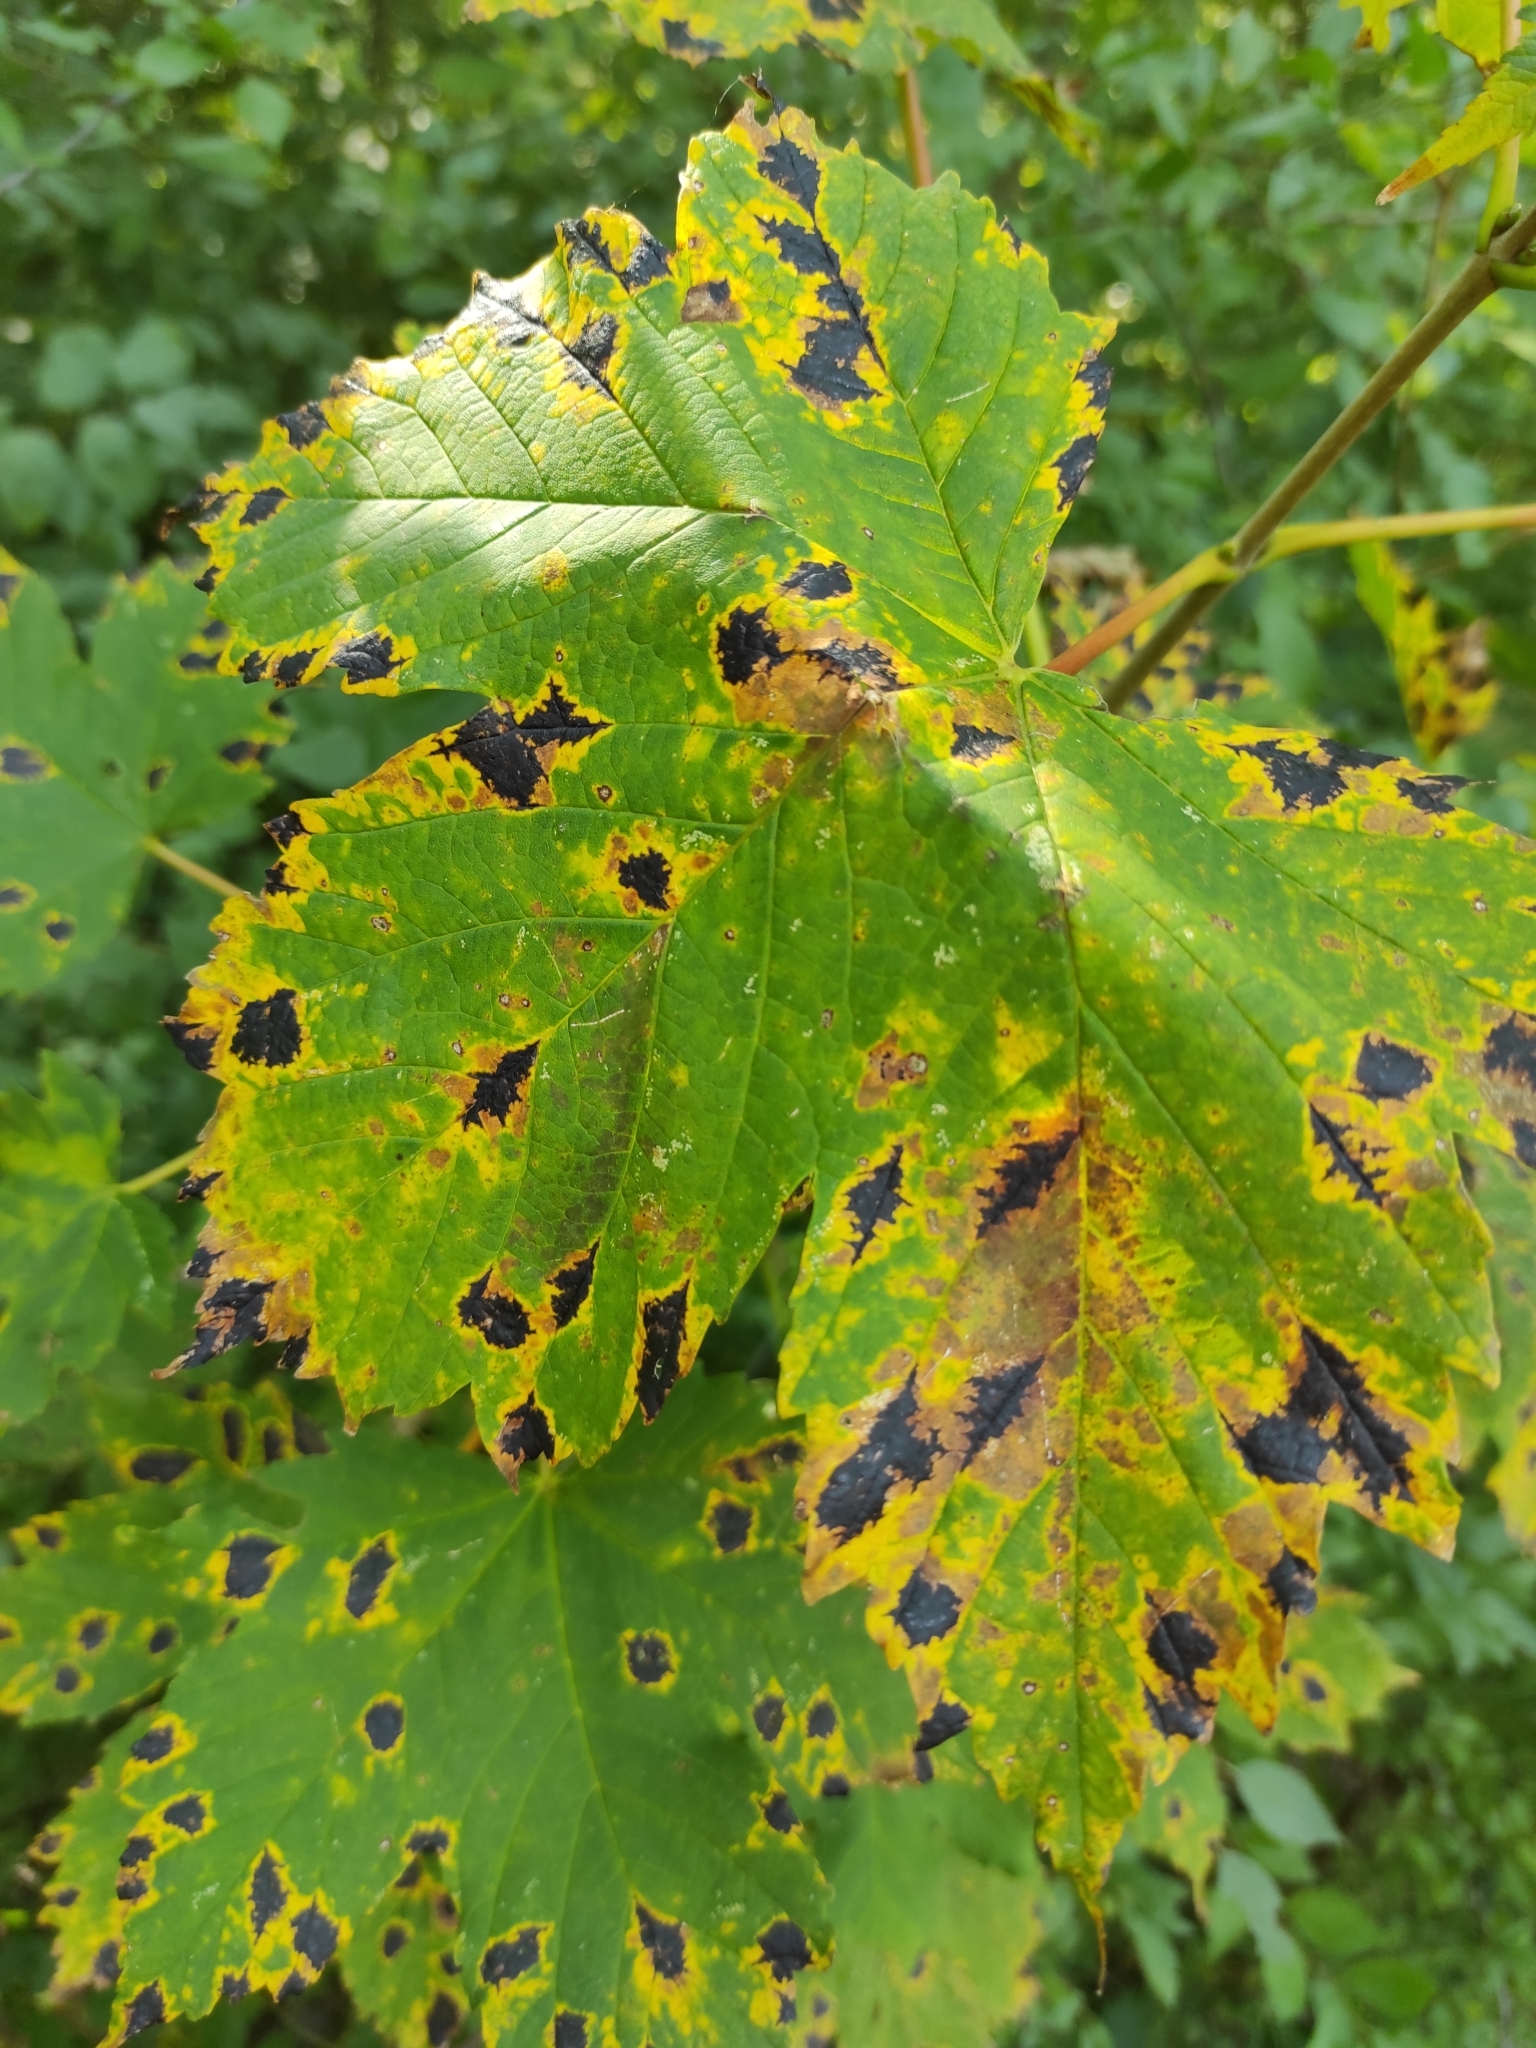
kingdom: Fungi
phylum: Ascomycota
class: Leotiomycetes
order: Rhytismatales
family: Rhytismataceae
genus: Rhytisma
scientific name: Rhytisma acerinum
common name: European tar spot
